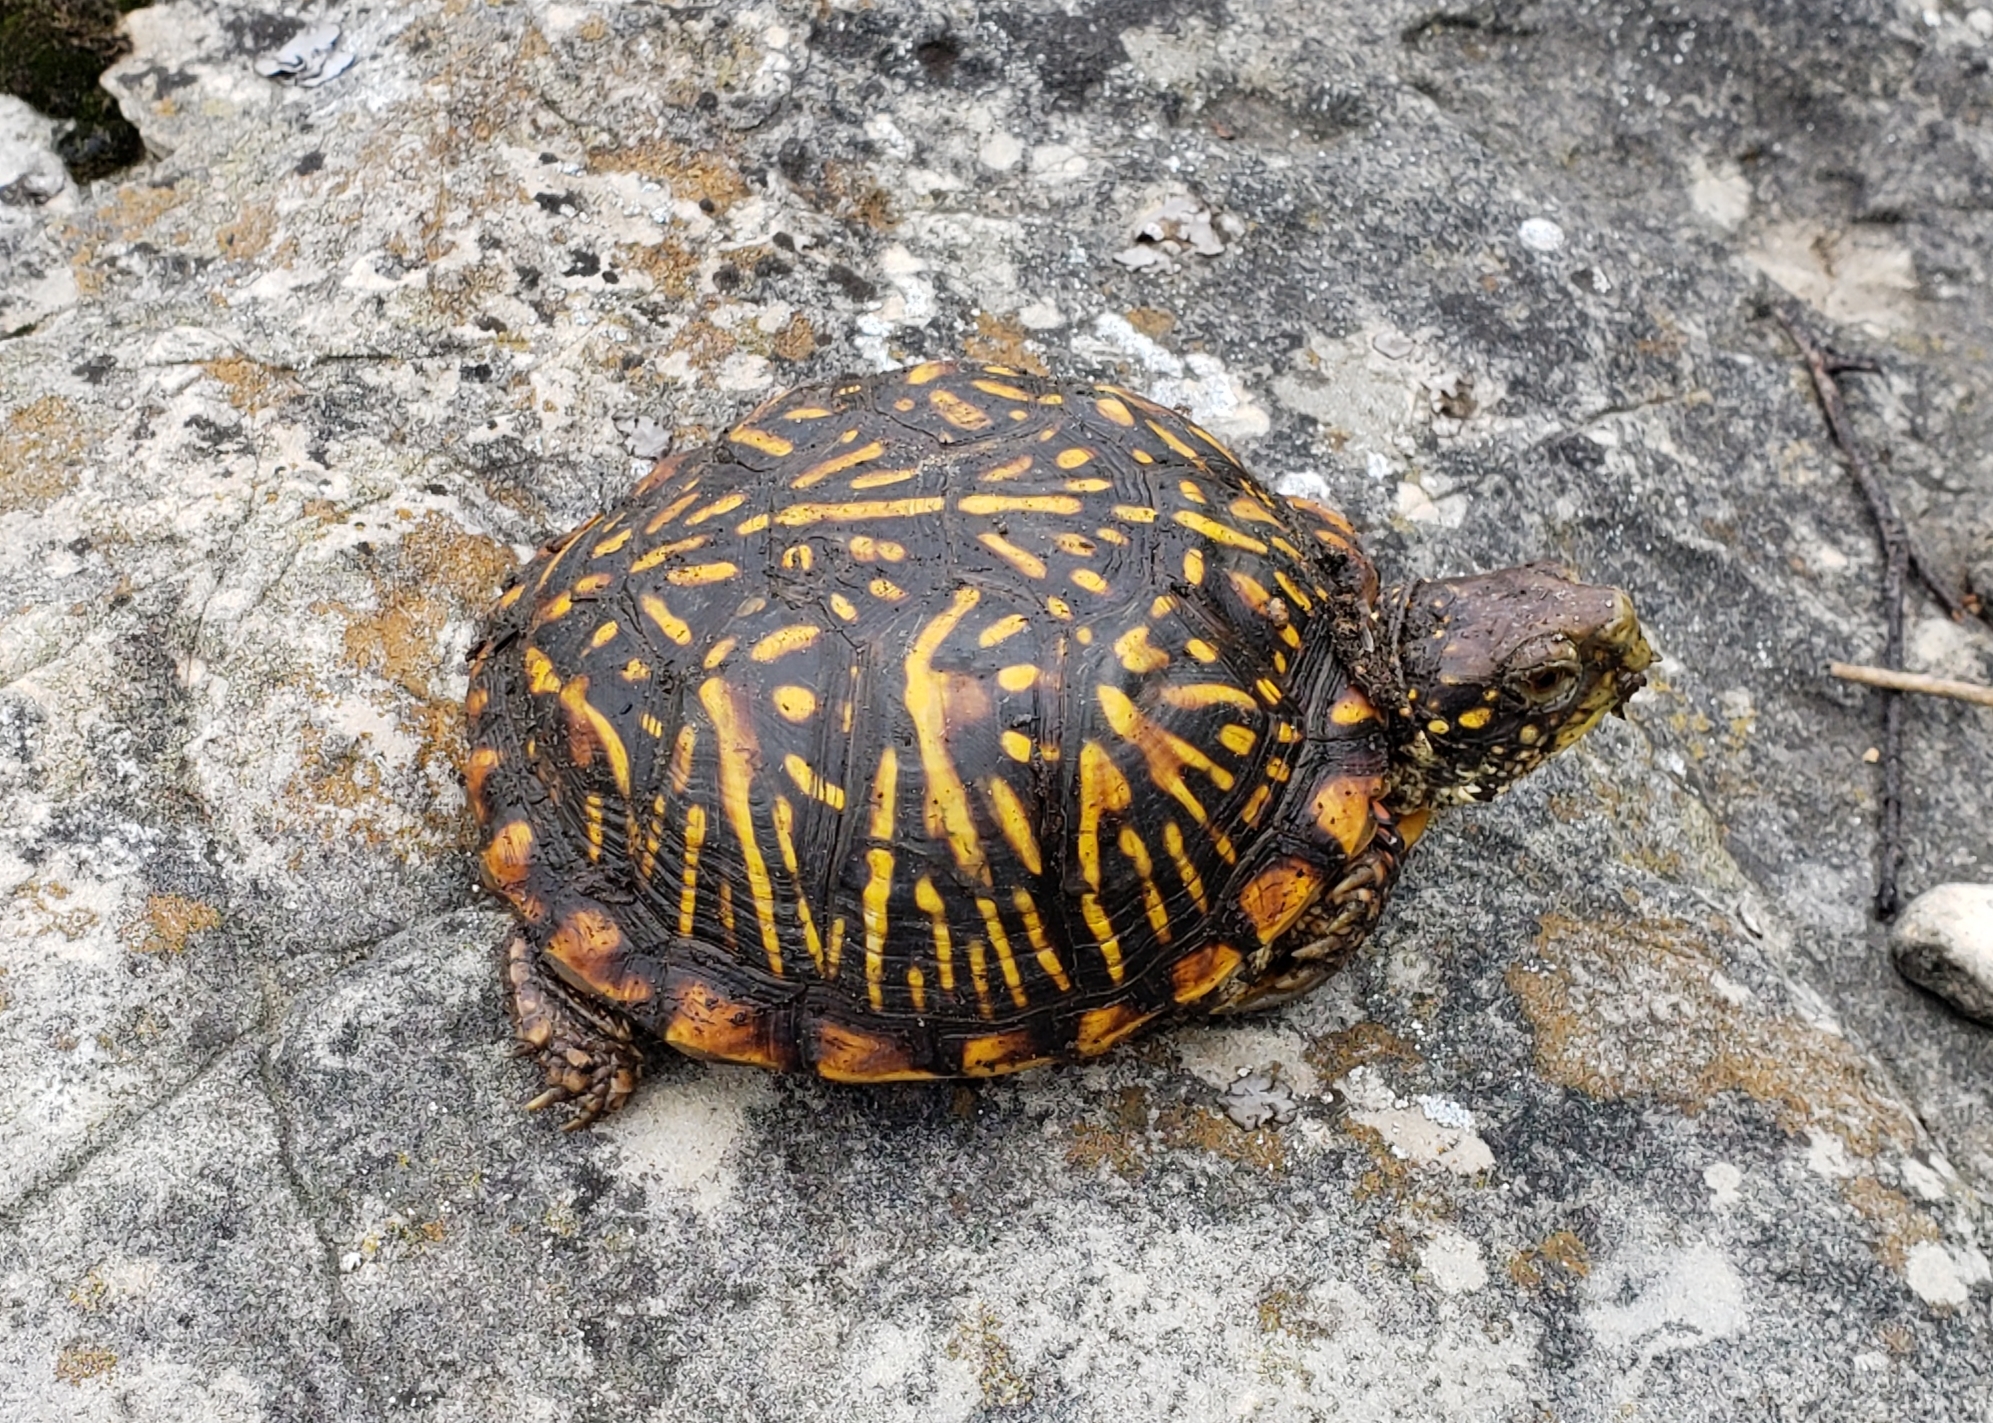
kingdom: Animalia
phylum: Chordata
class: Testudines
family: Emydidae
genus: Terrapene
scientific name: Terrapene ornata
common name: Western box turtle
